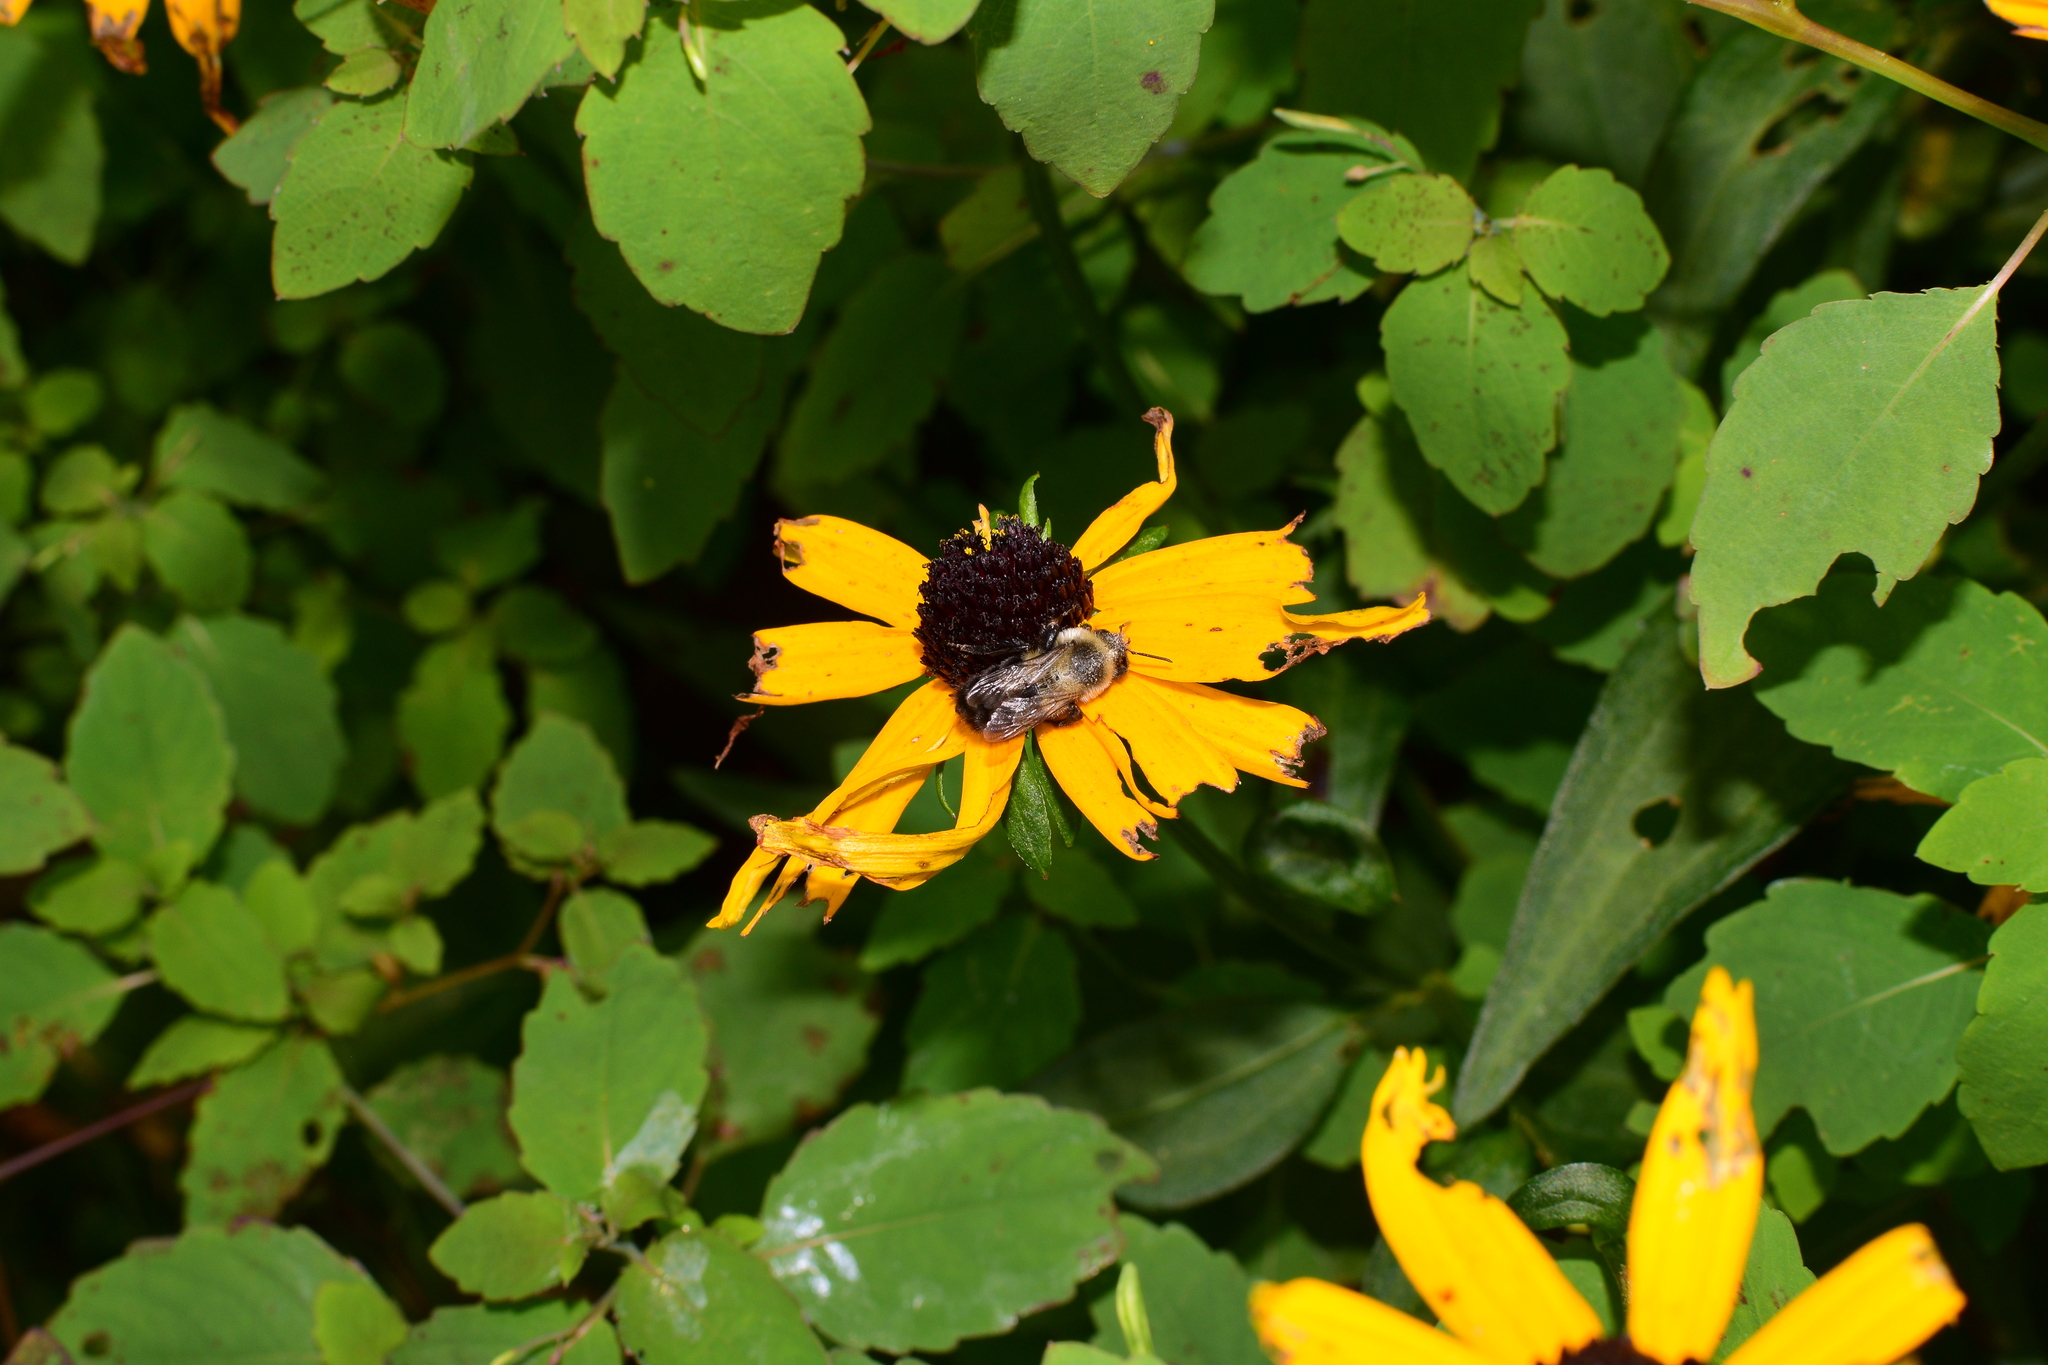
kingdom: Animalia
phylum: Arthropoda
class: Insecta
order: Hymenoptera
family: Apidae
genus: Bombus
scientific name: Bombus impatiens
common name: Common eastern bumble bee
